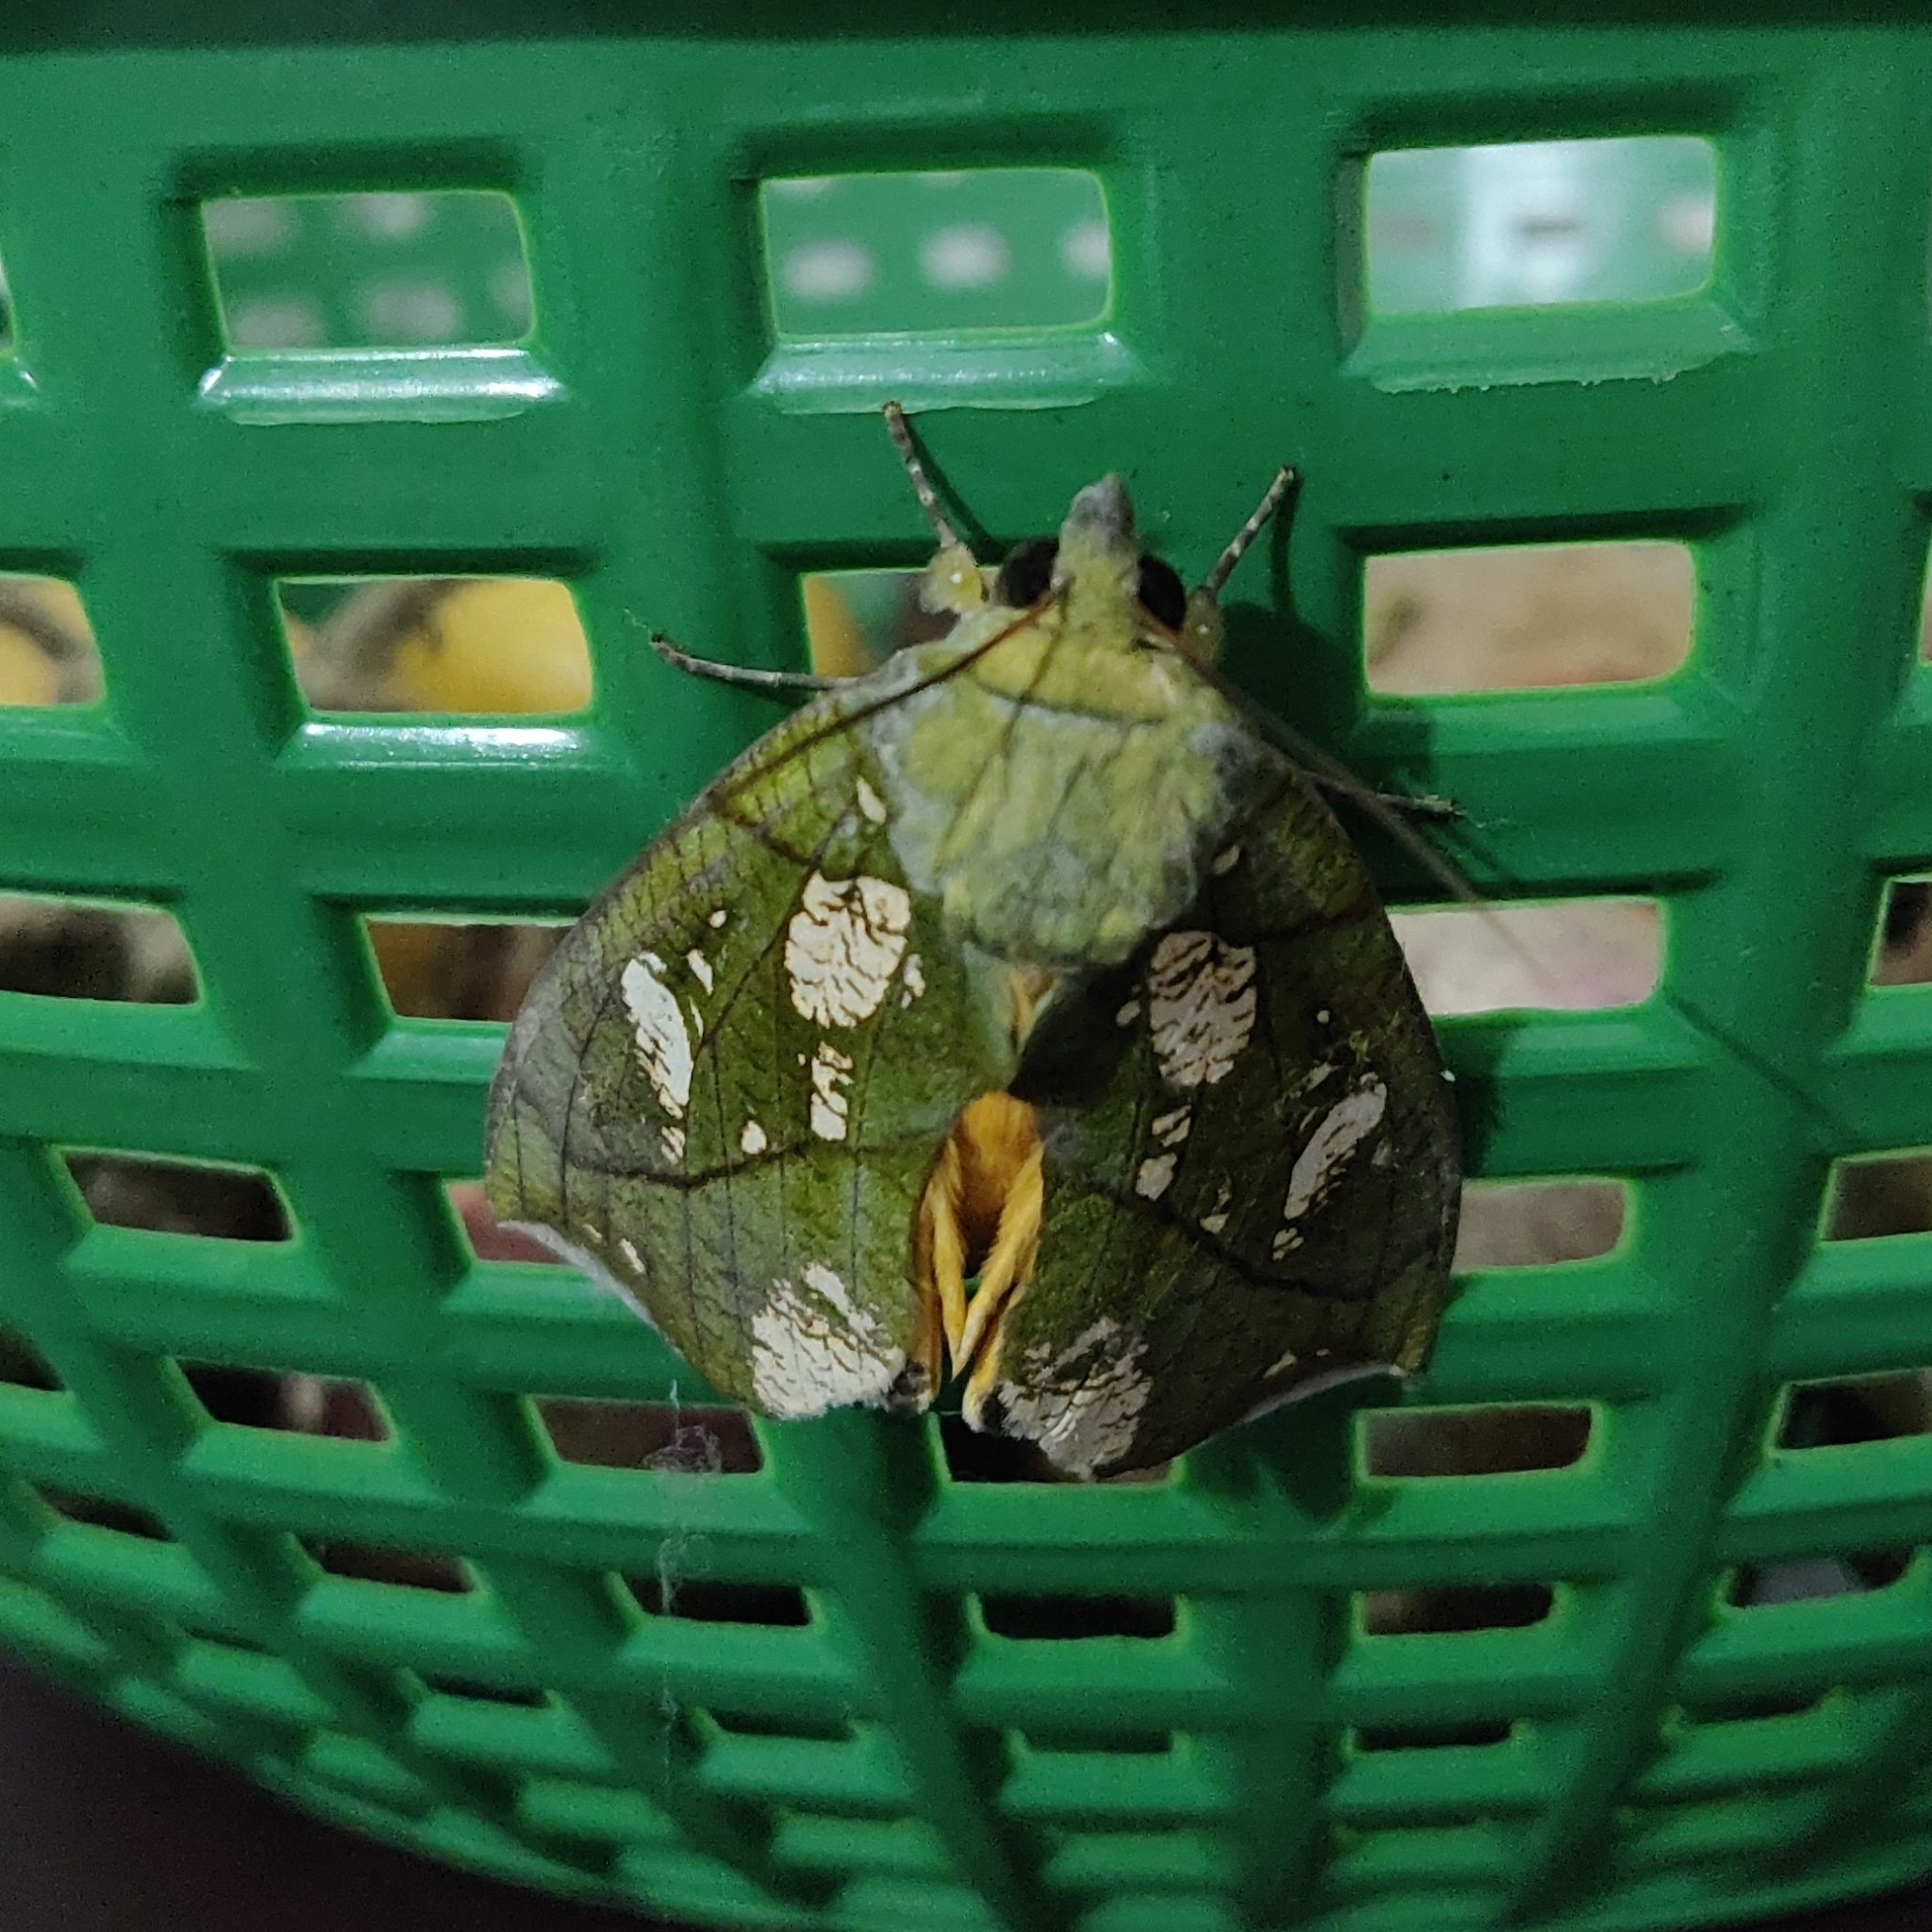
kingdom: Animalia
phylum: Arthropoda
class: Insecta
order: Lepidoptera
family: Erebidae
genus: Eudocima
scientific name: Eudocima hypermnestra
